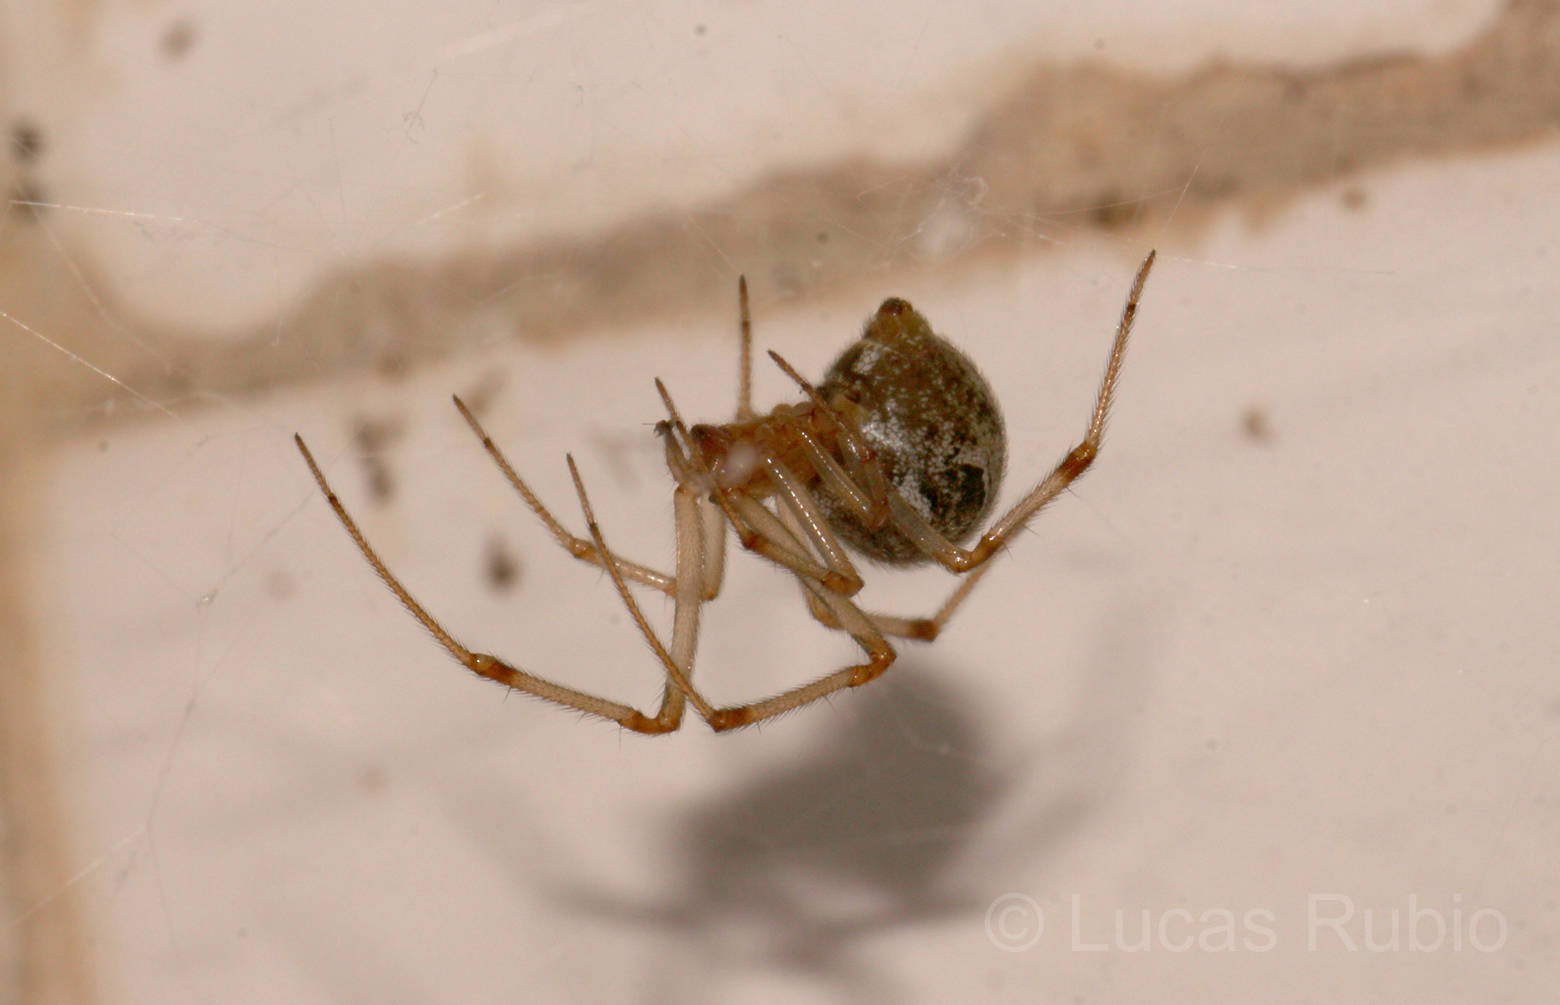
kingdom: Animalia
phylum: Arthropoda
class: Arachnida
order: Araneae
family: Theridiidae
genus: Parasteatoda
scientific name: Parasteatoda tepidariorum
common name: Common house spider
